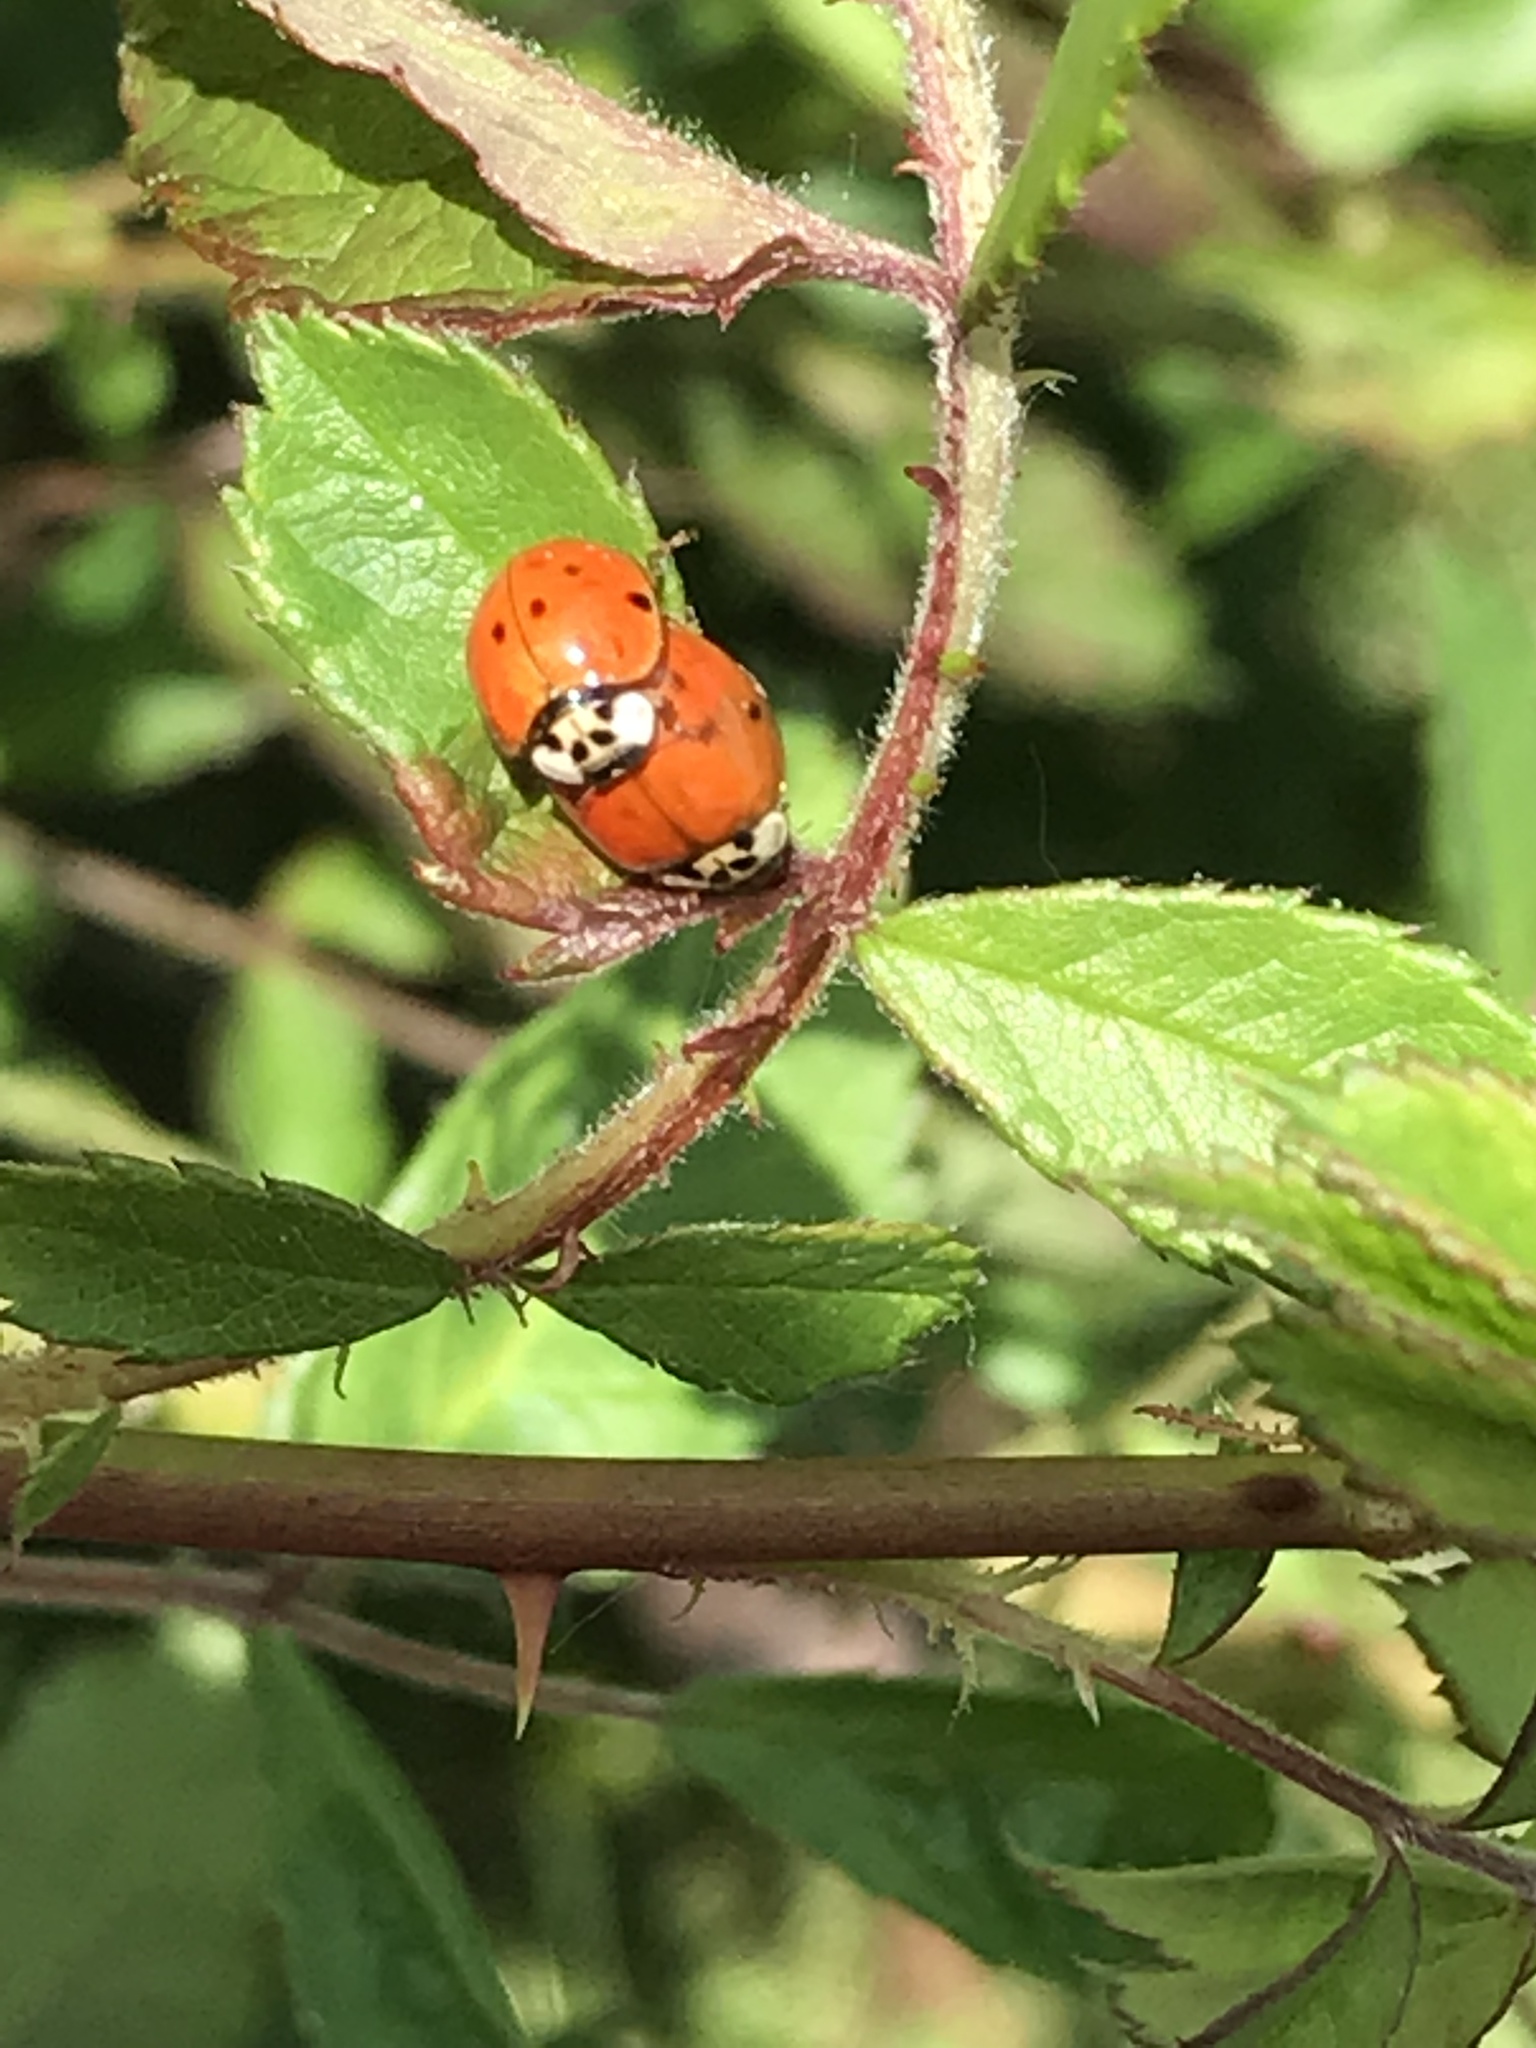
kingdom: Animalia
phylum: Arthropoda
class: Insecta
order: Coleoptera
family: Coccinellidae
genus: Harmonia
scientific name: Harmonia axyridis
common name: Harlequin ladybird
